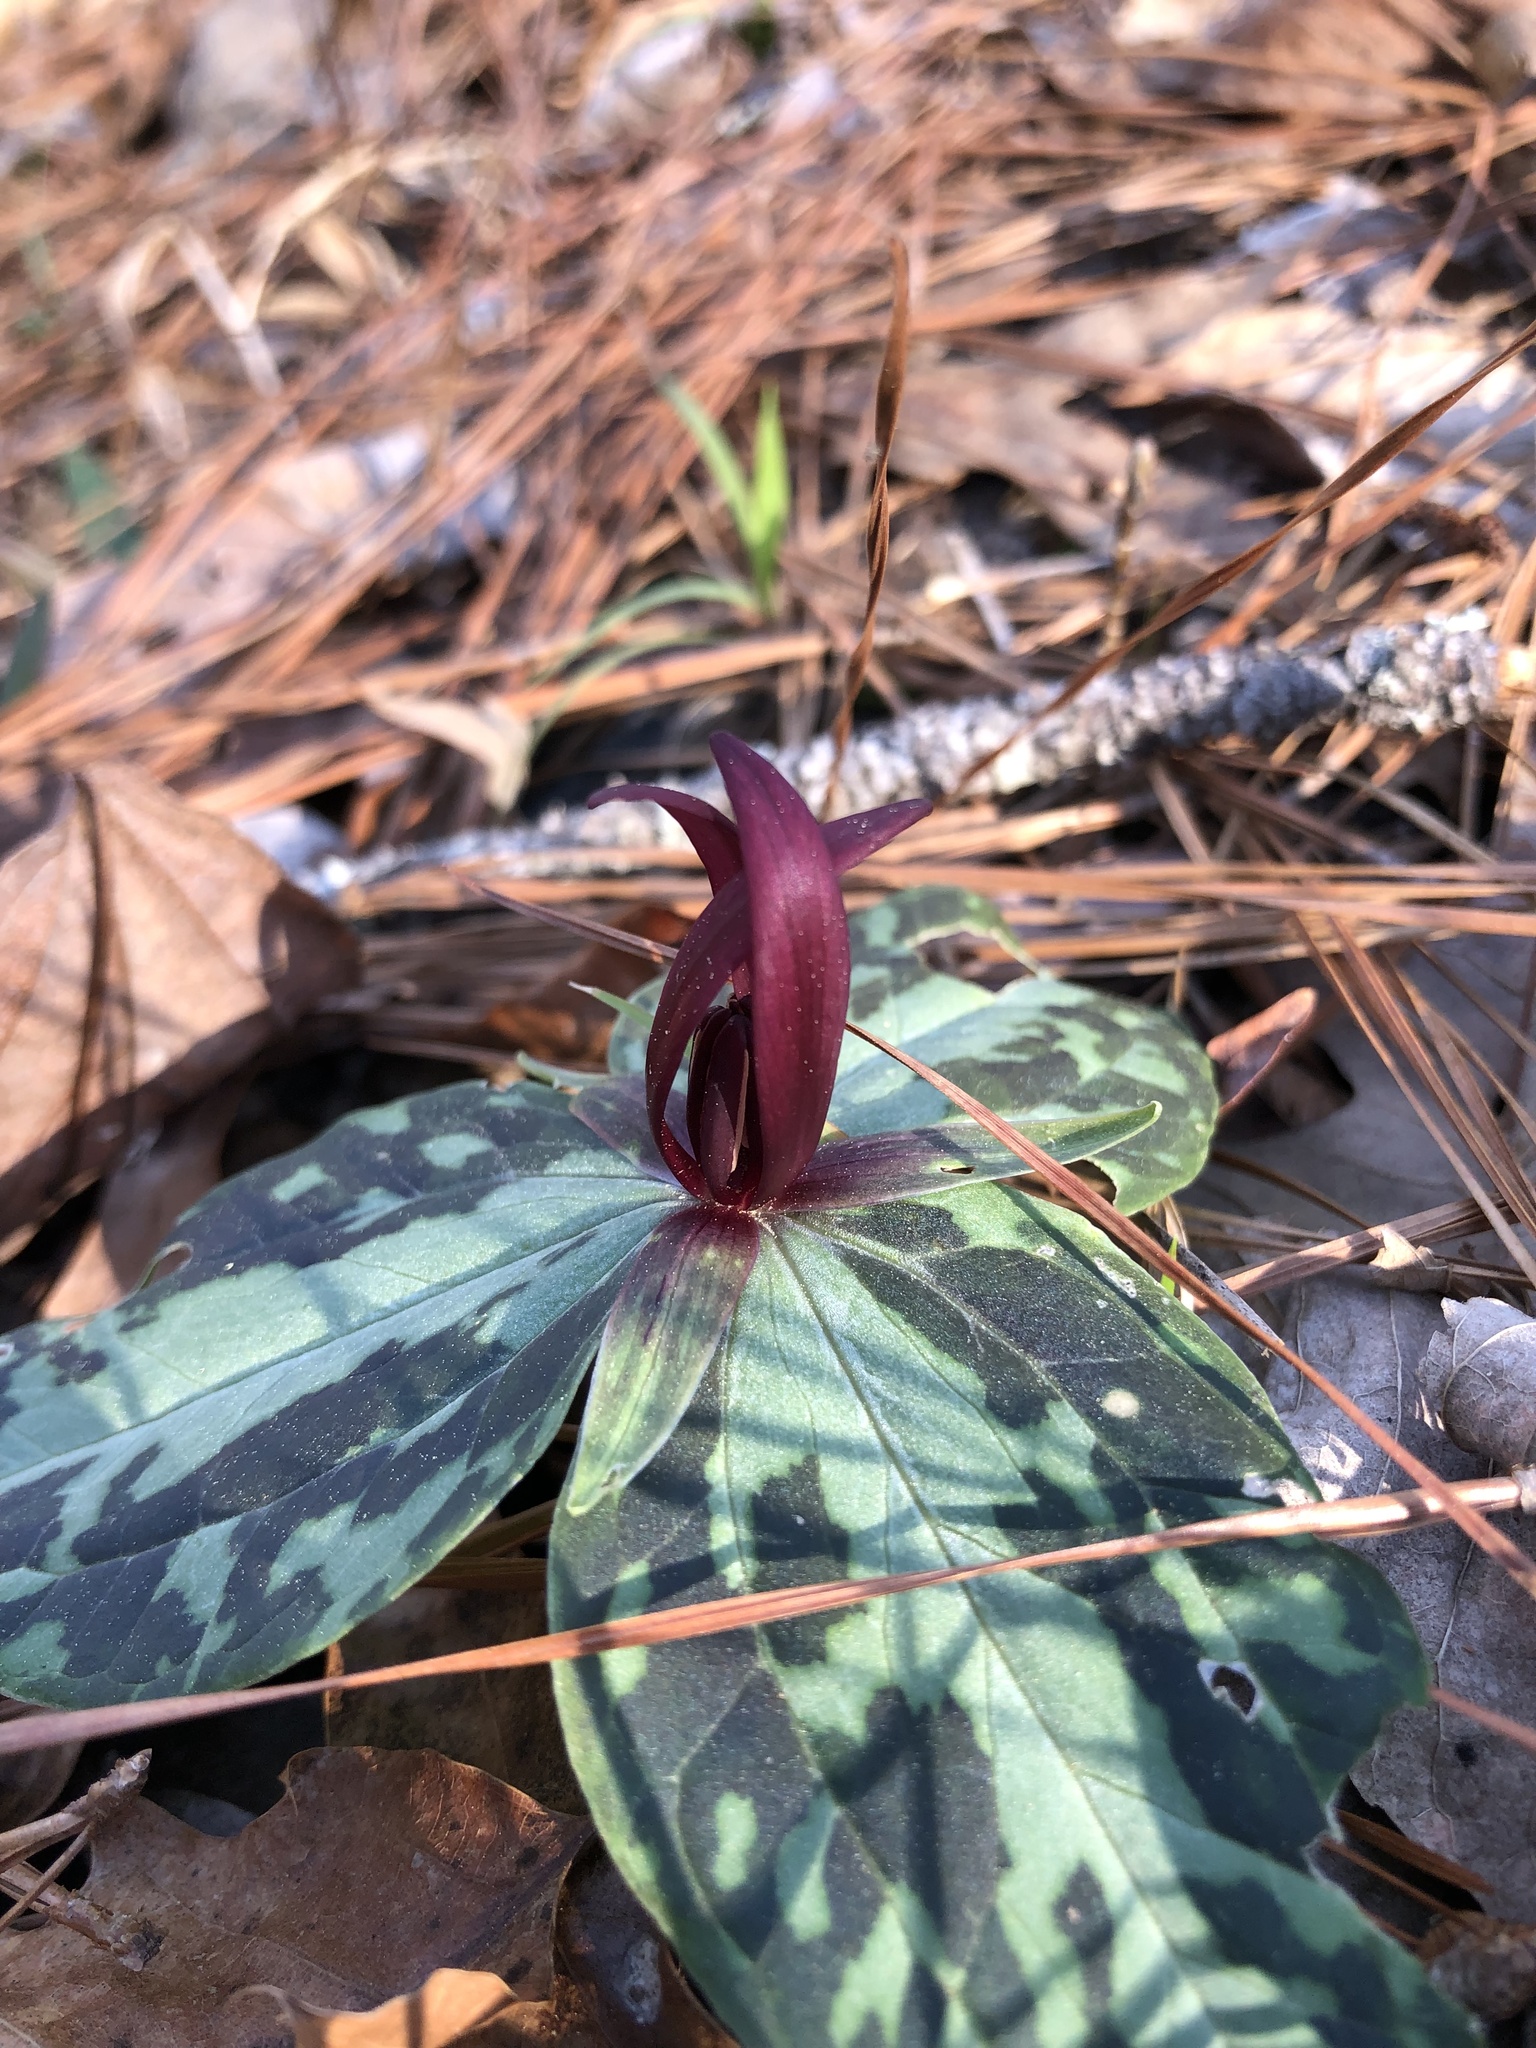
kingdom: Plantae
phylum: Tracheophyta
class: Liliopsida
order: Liliales
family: Melanthiaceae
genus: Trillium
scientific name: Trillium foetidissimum
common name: Mississippi river trillium
